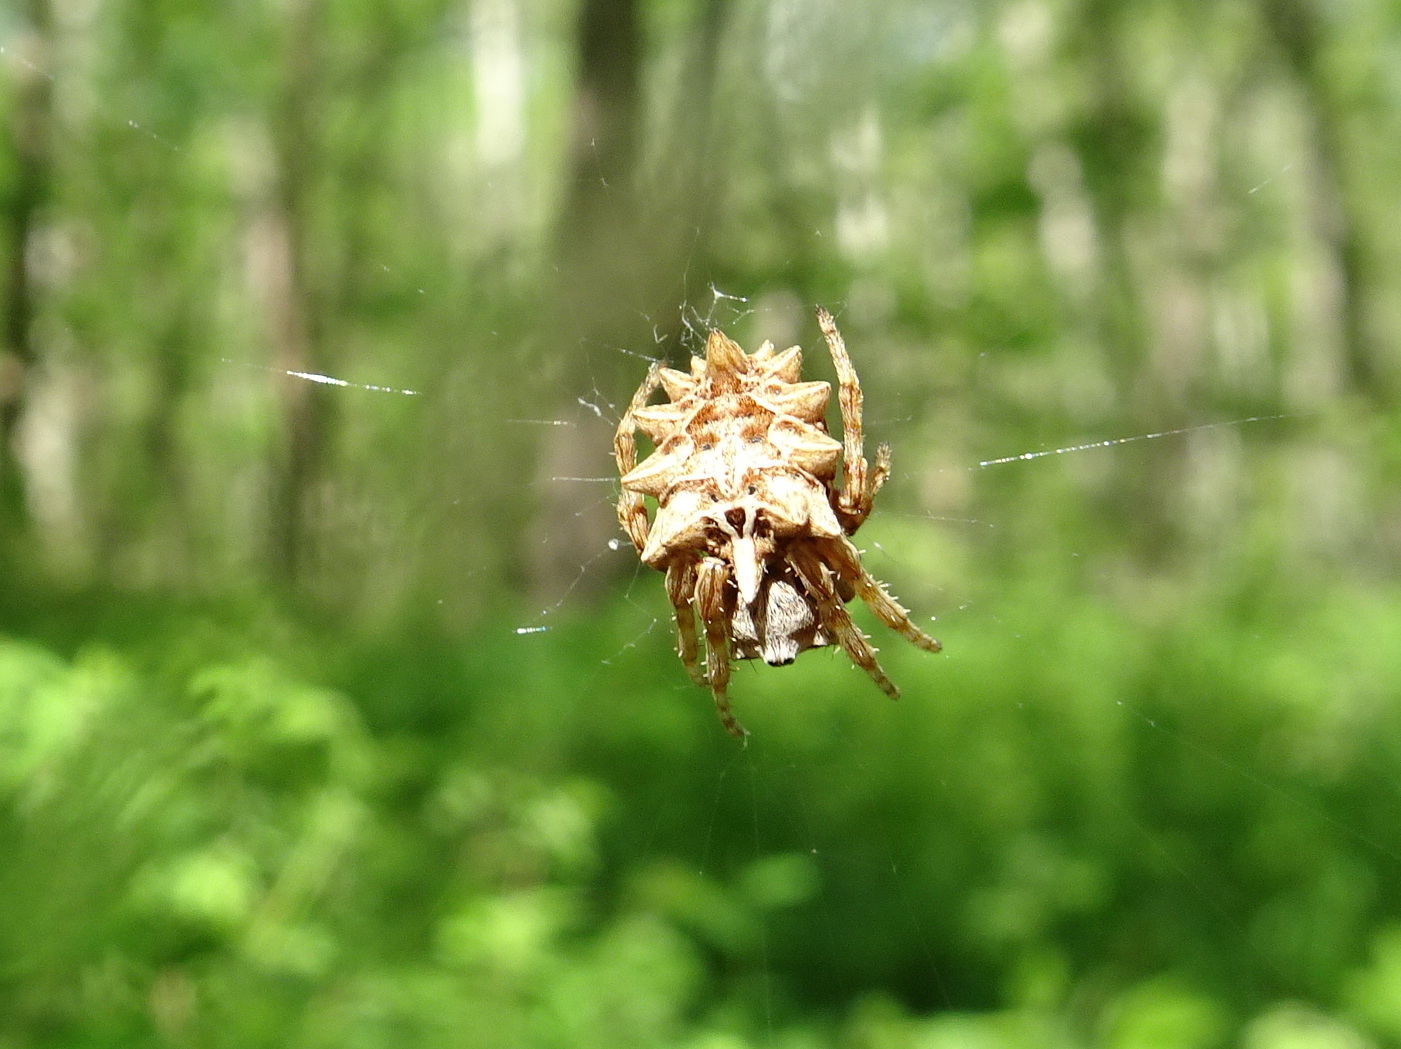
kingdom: Animalia
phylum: Arthropoda
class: Arachnida
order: Araneae
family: Araneidae
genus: Acanthepeira
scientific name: Acanthepeira stellata
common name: Starbellied orbweaver
